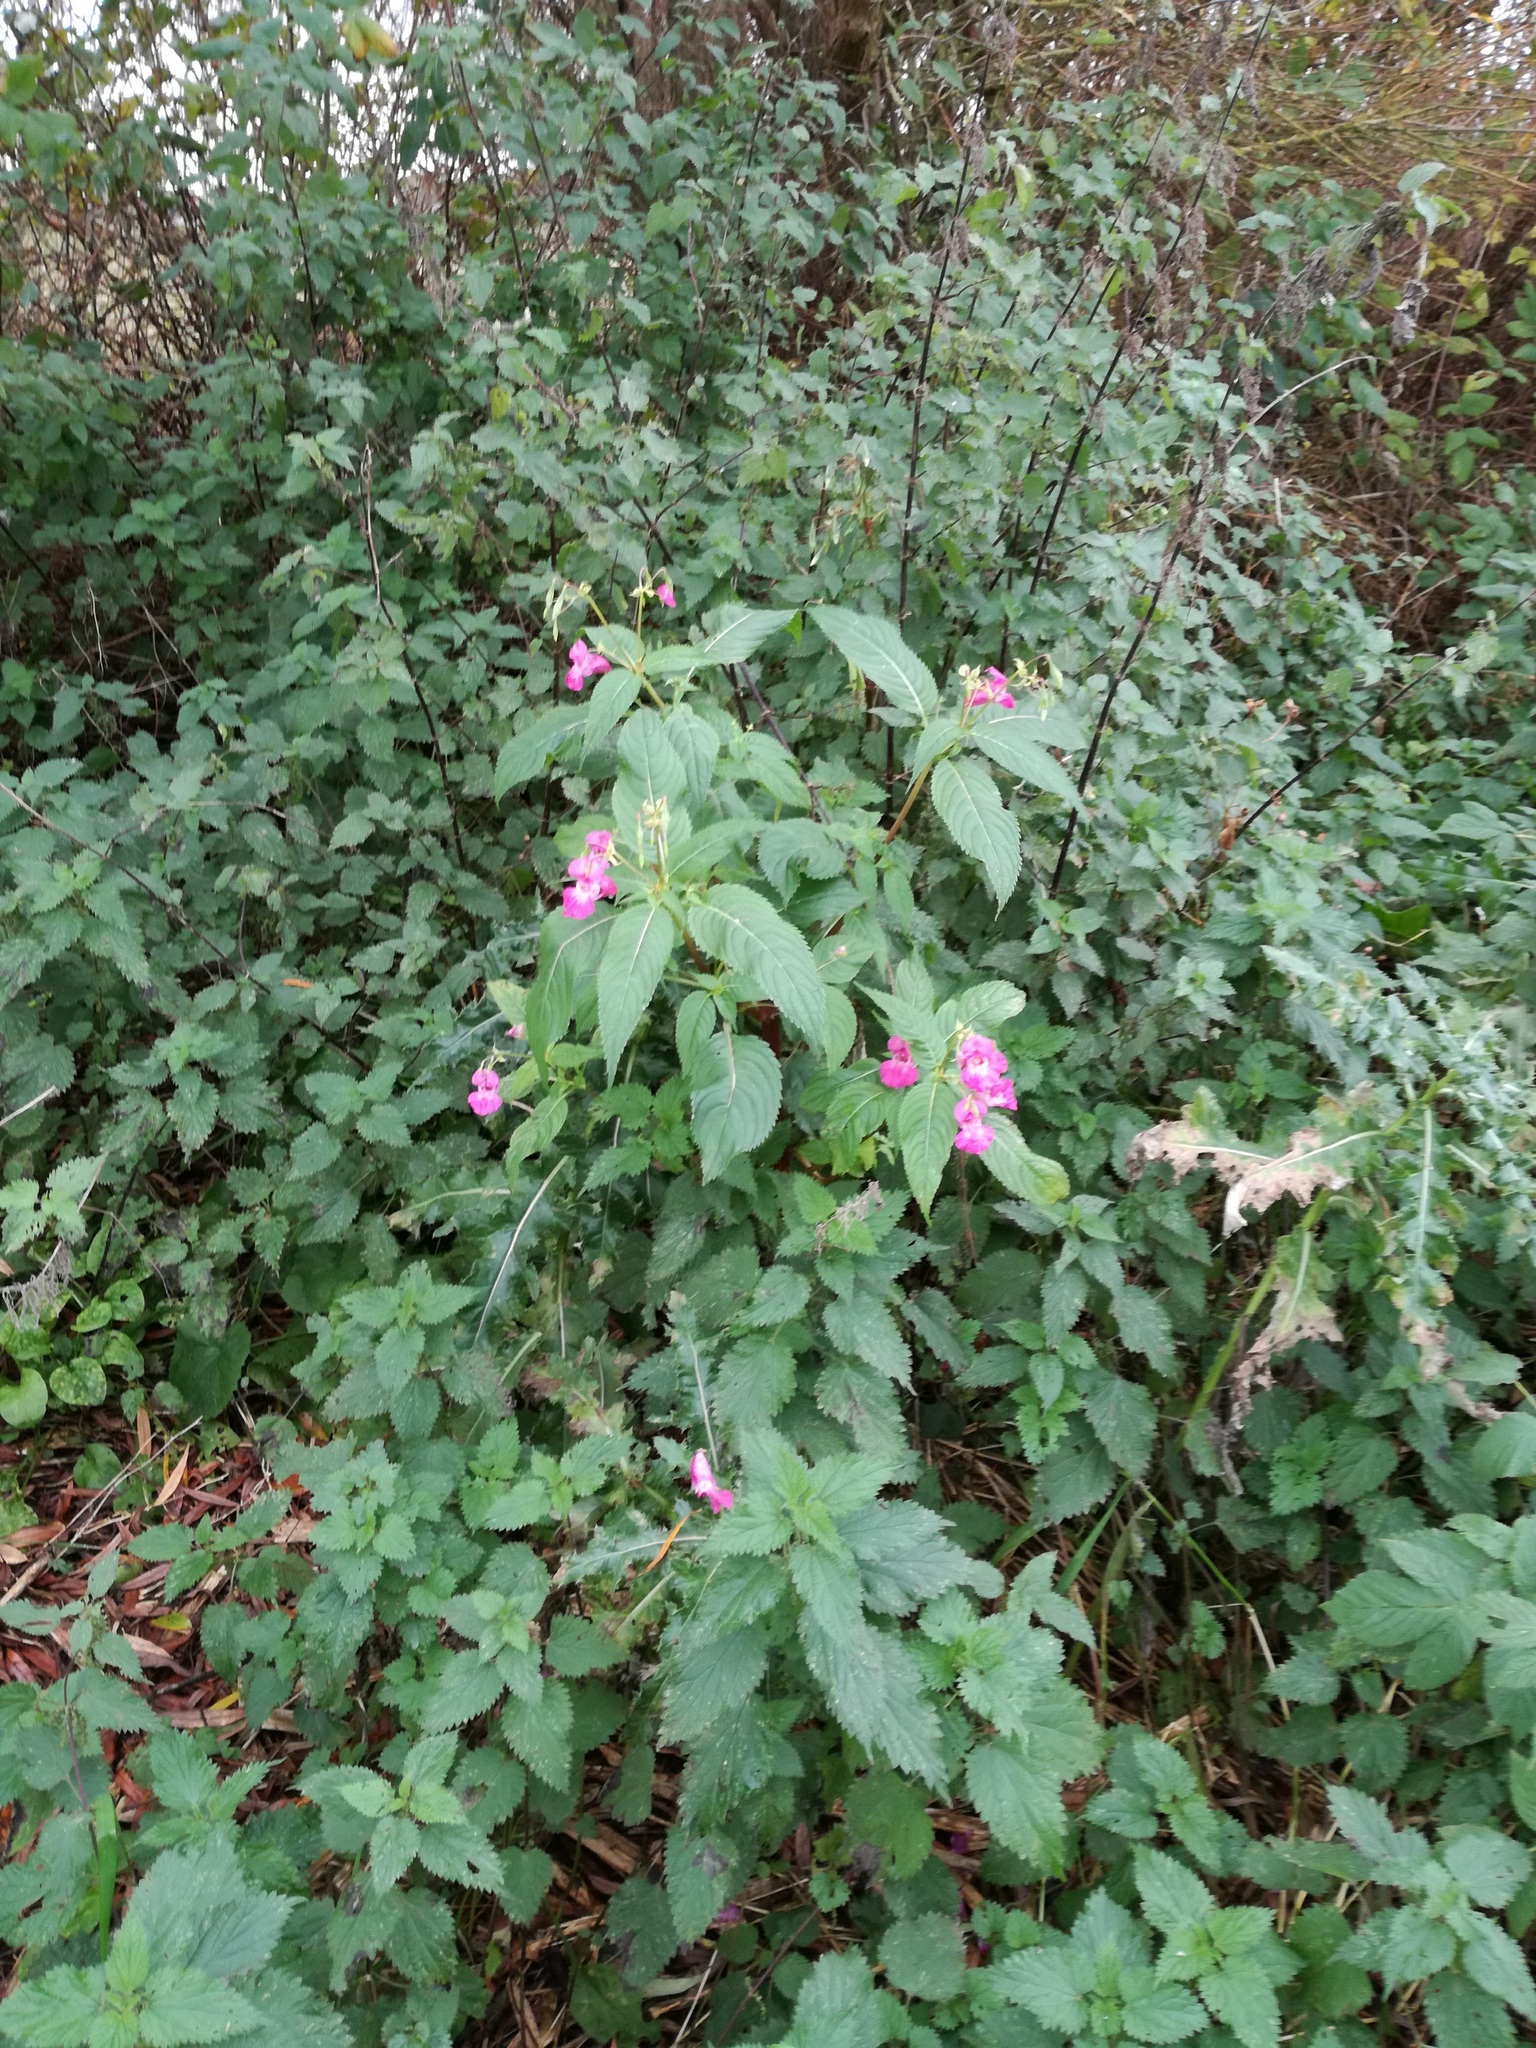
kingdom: Plantae
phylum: Tracheophyta
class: Magnoliopsida
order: Ericales
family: Balsaminaceae
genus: Impatiens
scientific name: Impatiens glandulifera
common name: Himalayan balsam
